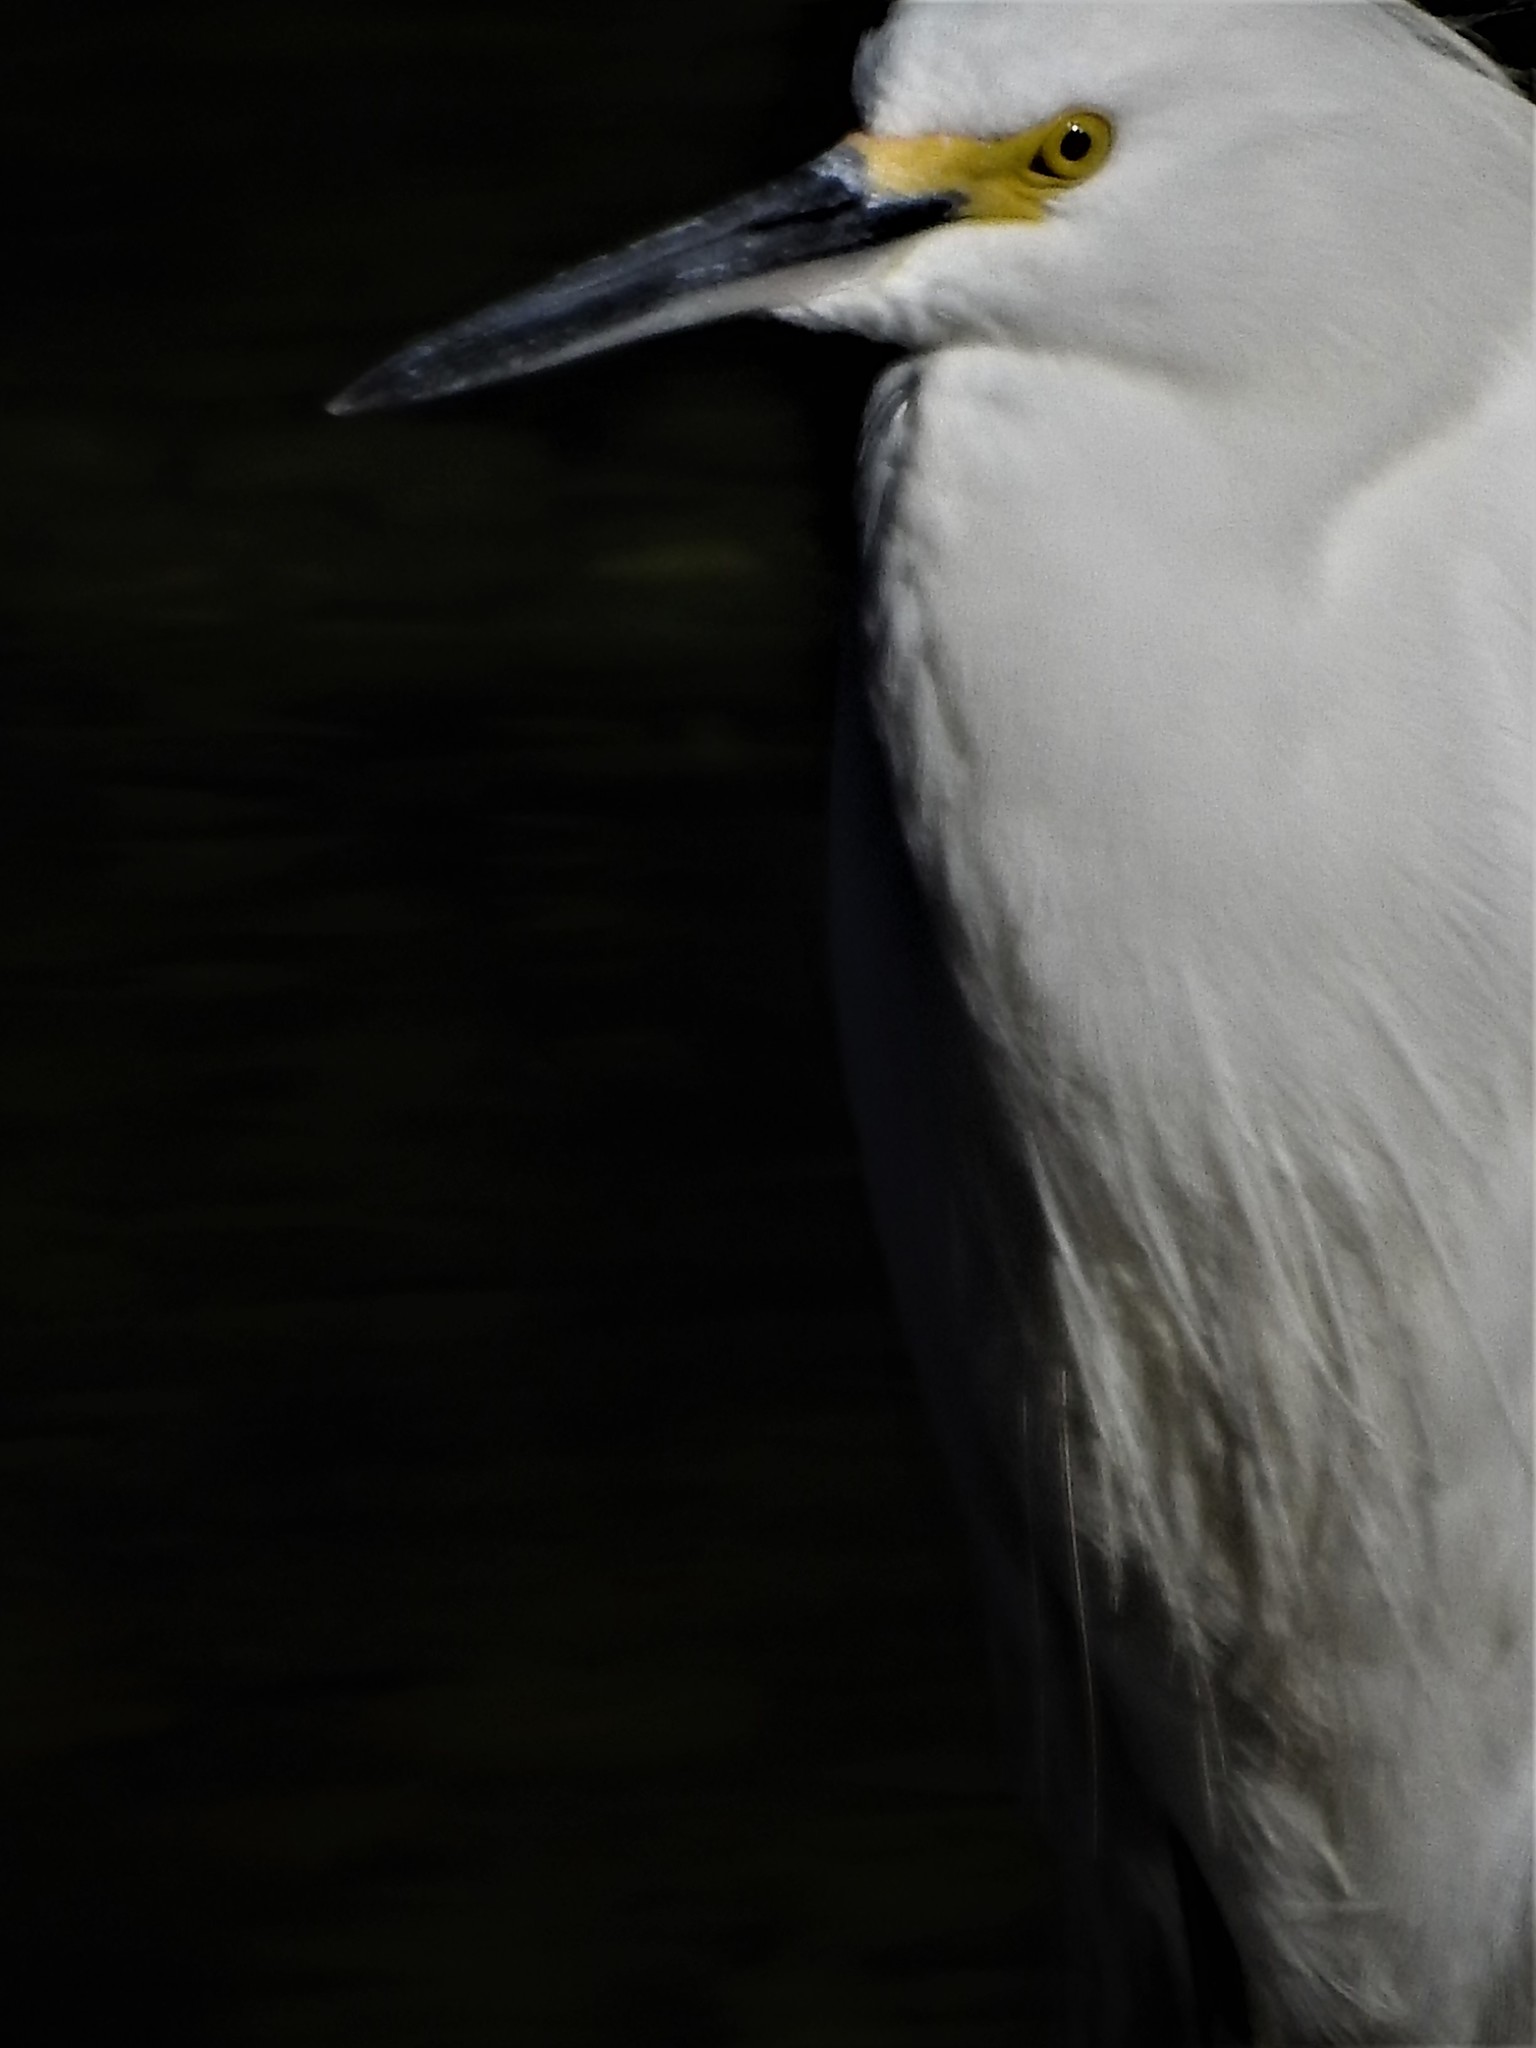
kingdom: Animalia
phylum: Chordata
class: Aves
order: Pelecaniformes
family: Ardeidae
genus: Egretta
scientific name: Egretta thula
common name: Snowy egret
